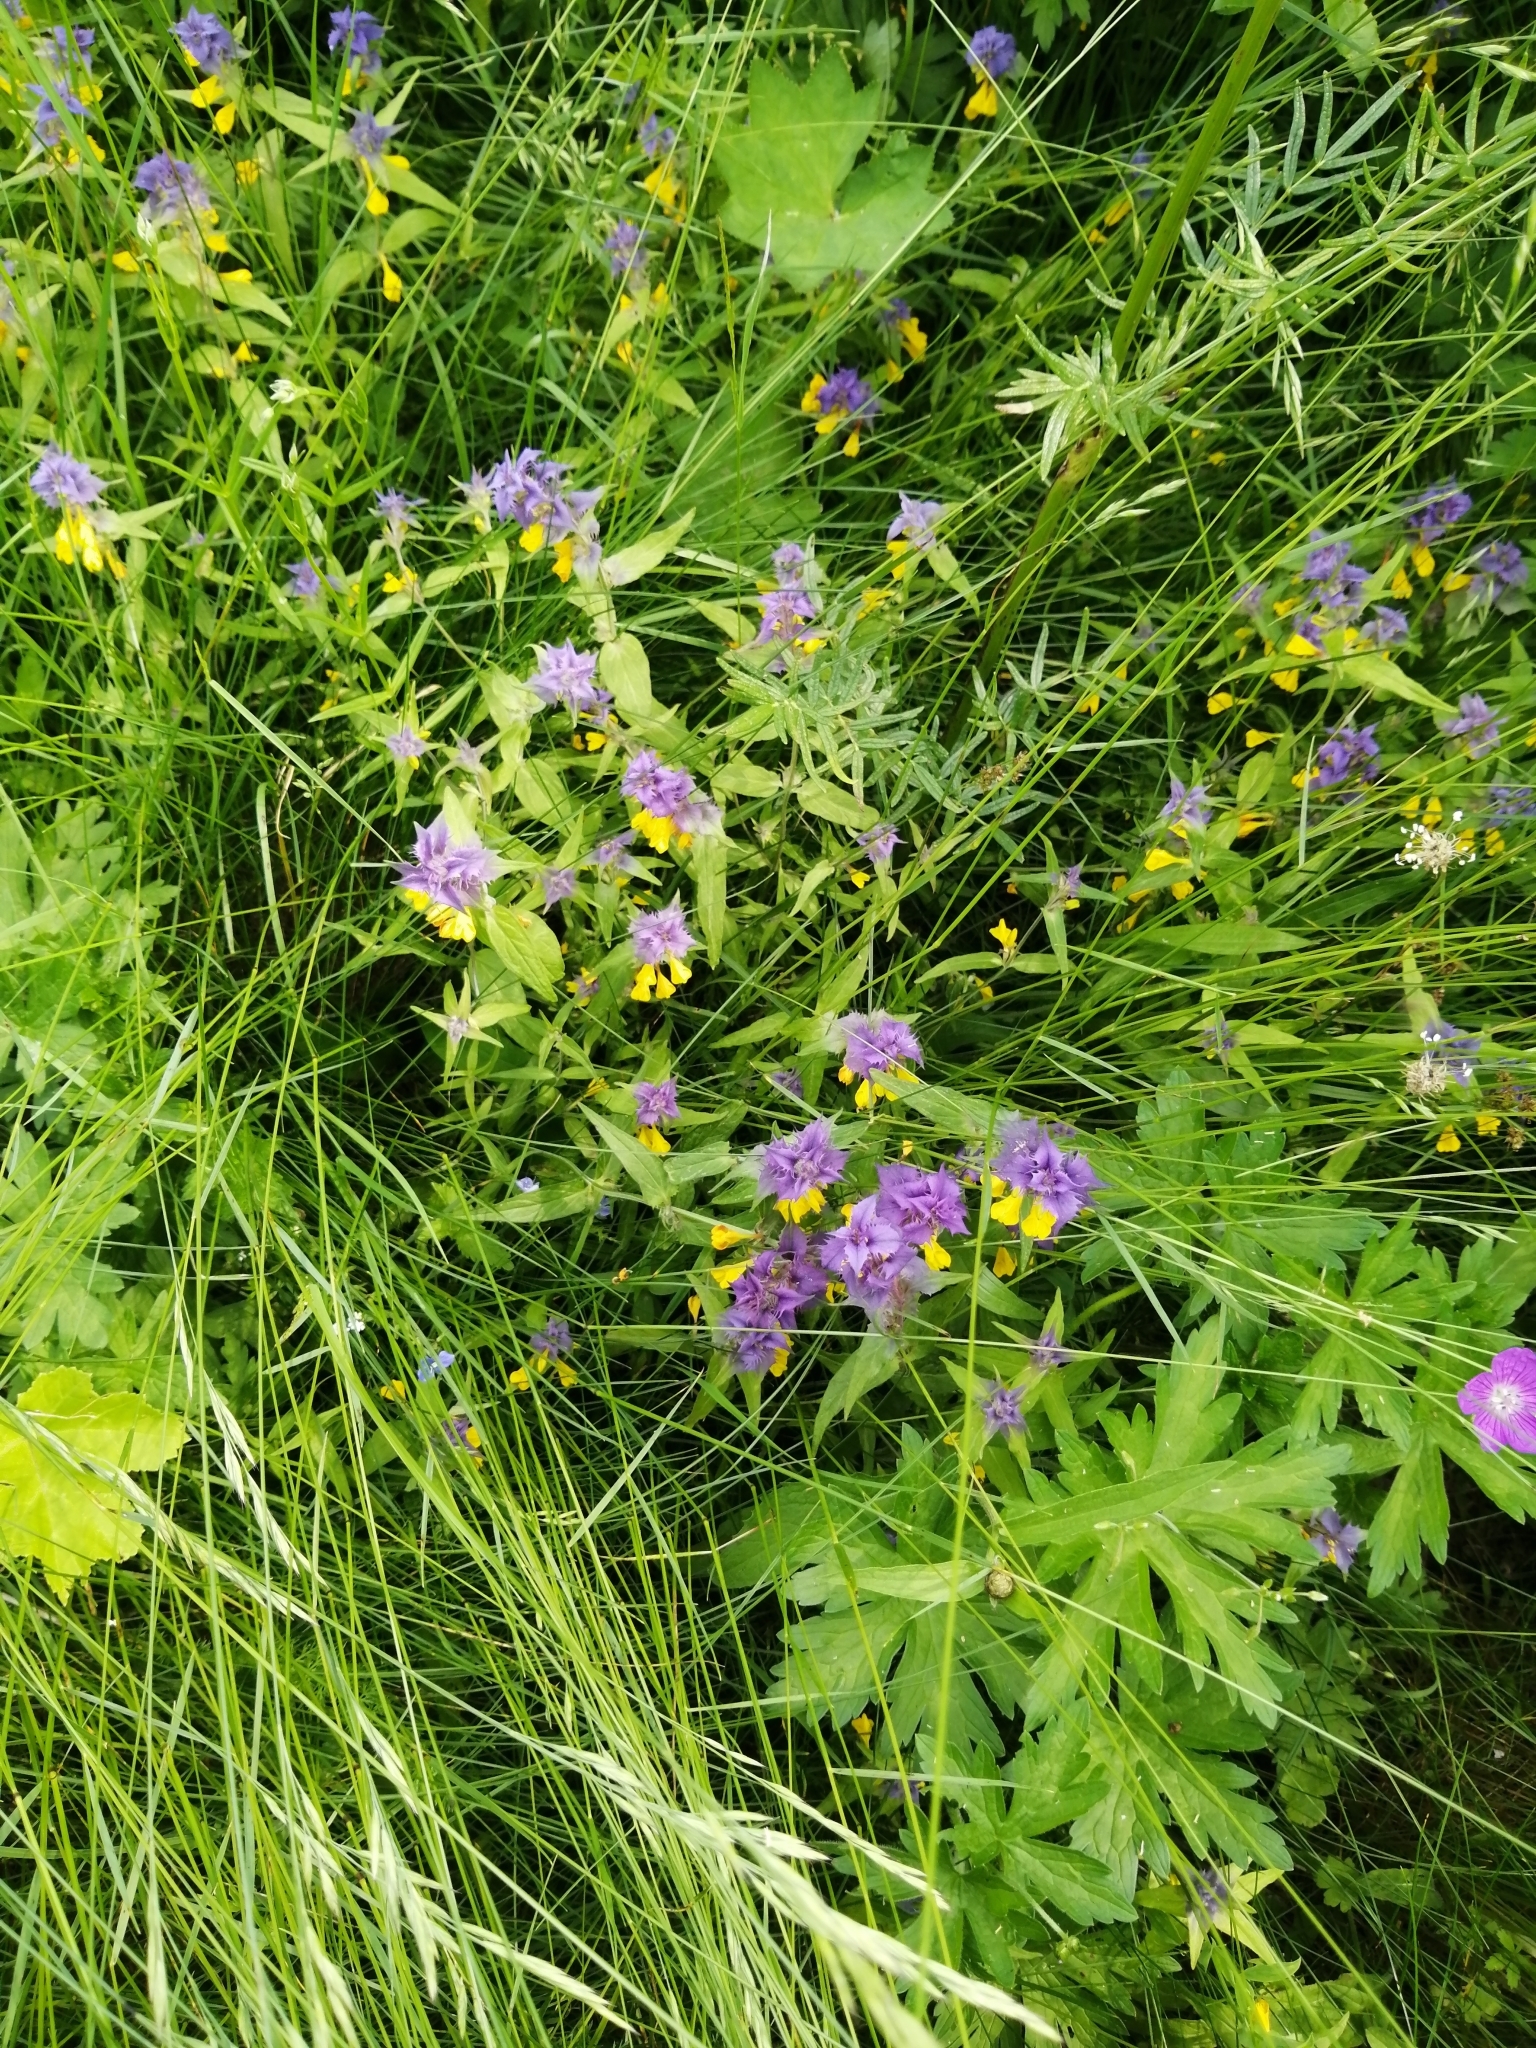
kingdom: Plantae
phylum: Tracheophyta
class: Magnoliopsida
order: Lamiales
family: Orobanchaceae
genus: Melampyrum
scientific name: Melampyrum nemorosum
